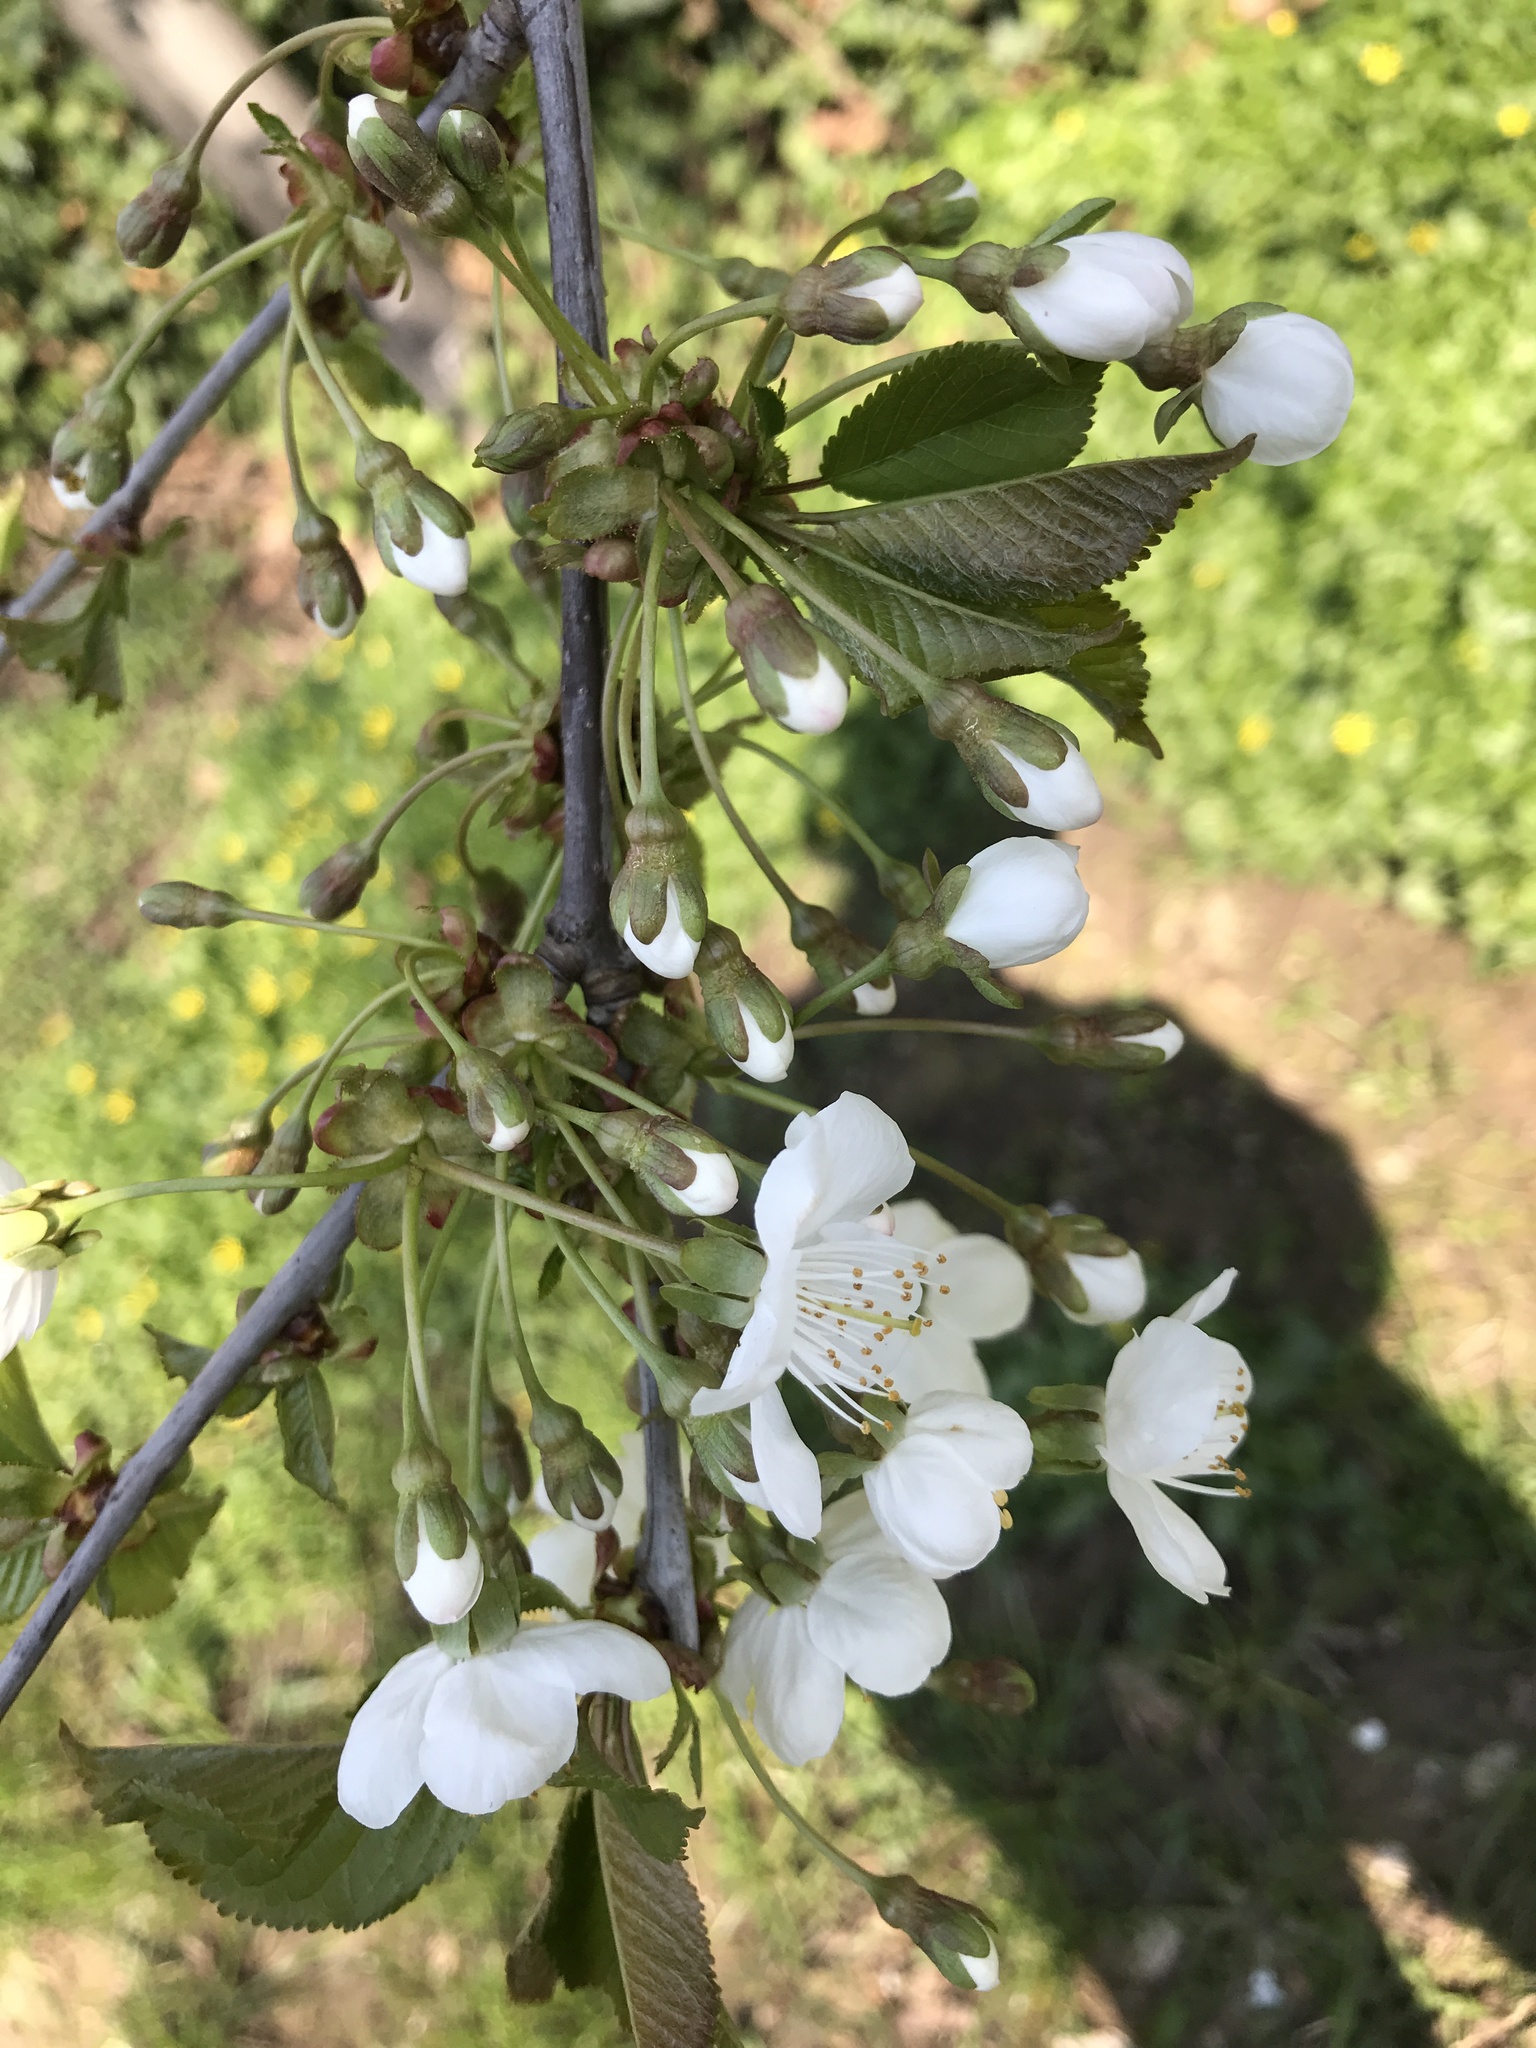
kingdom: Plantae
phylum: Tracheophyta
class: Magnoliopsida
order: Rosales
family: Rosaceae
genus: Prunus
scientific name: Prunus avium
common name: Sweet cherry
